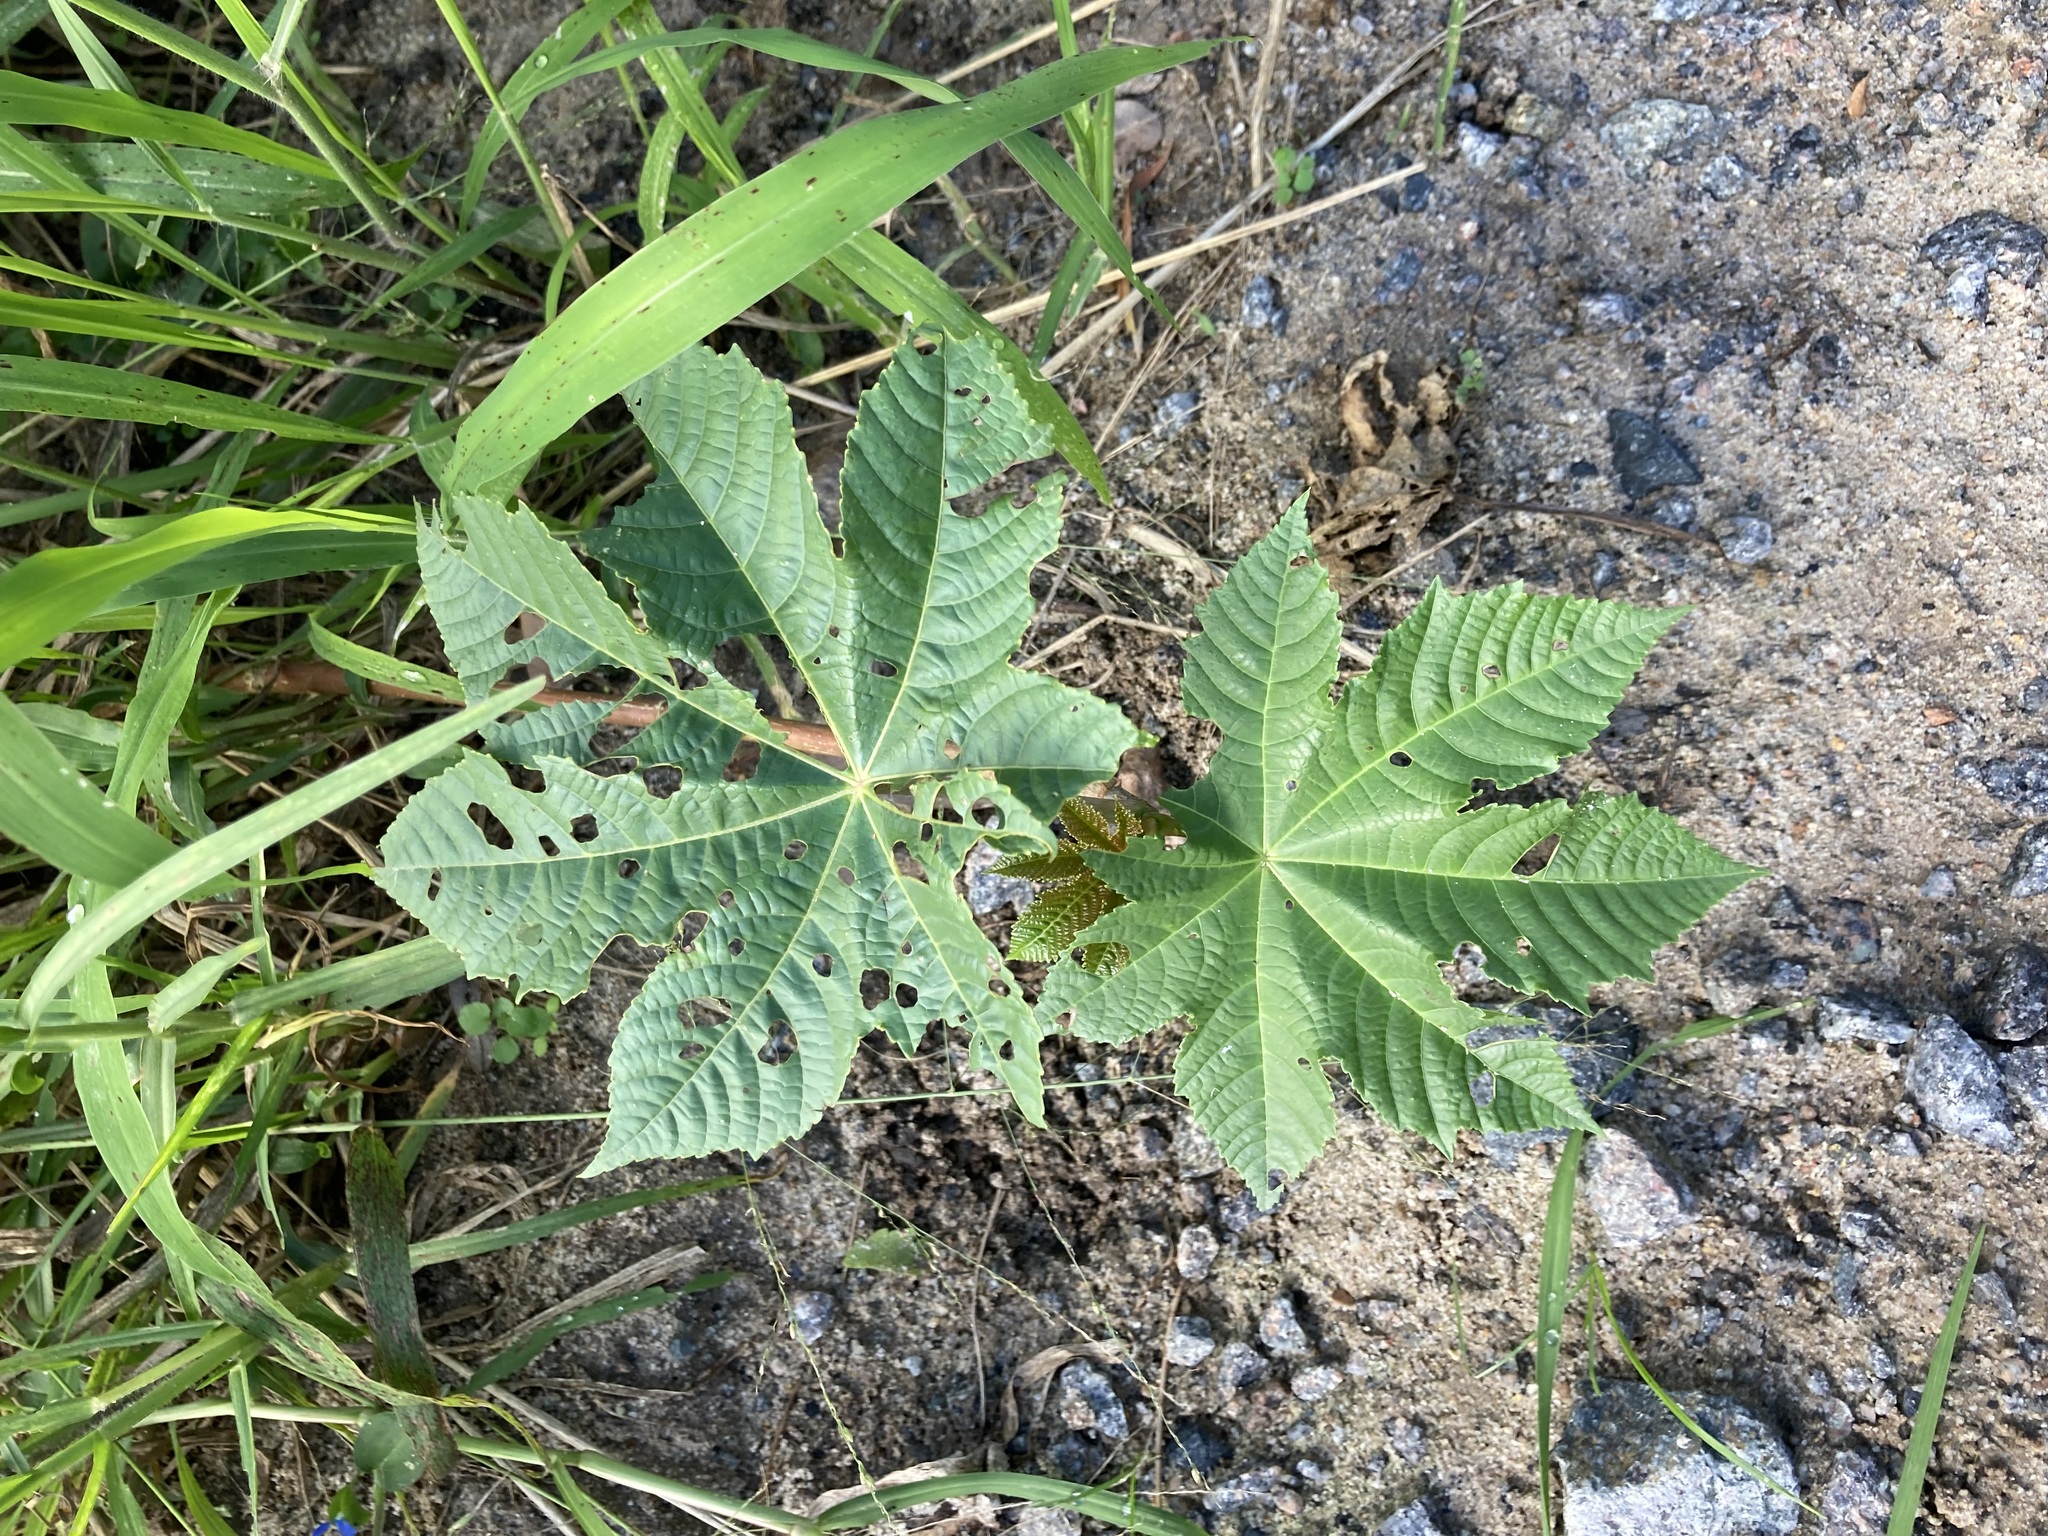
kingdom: Plantae
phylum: Tracheophyta
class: Magnoliopsida
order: Malpighiales
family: Euphorbiaceae
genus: Ricinus
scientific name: Ricinus communis
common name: Castor-oil-plant
